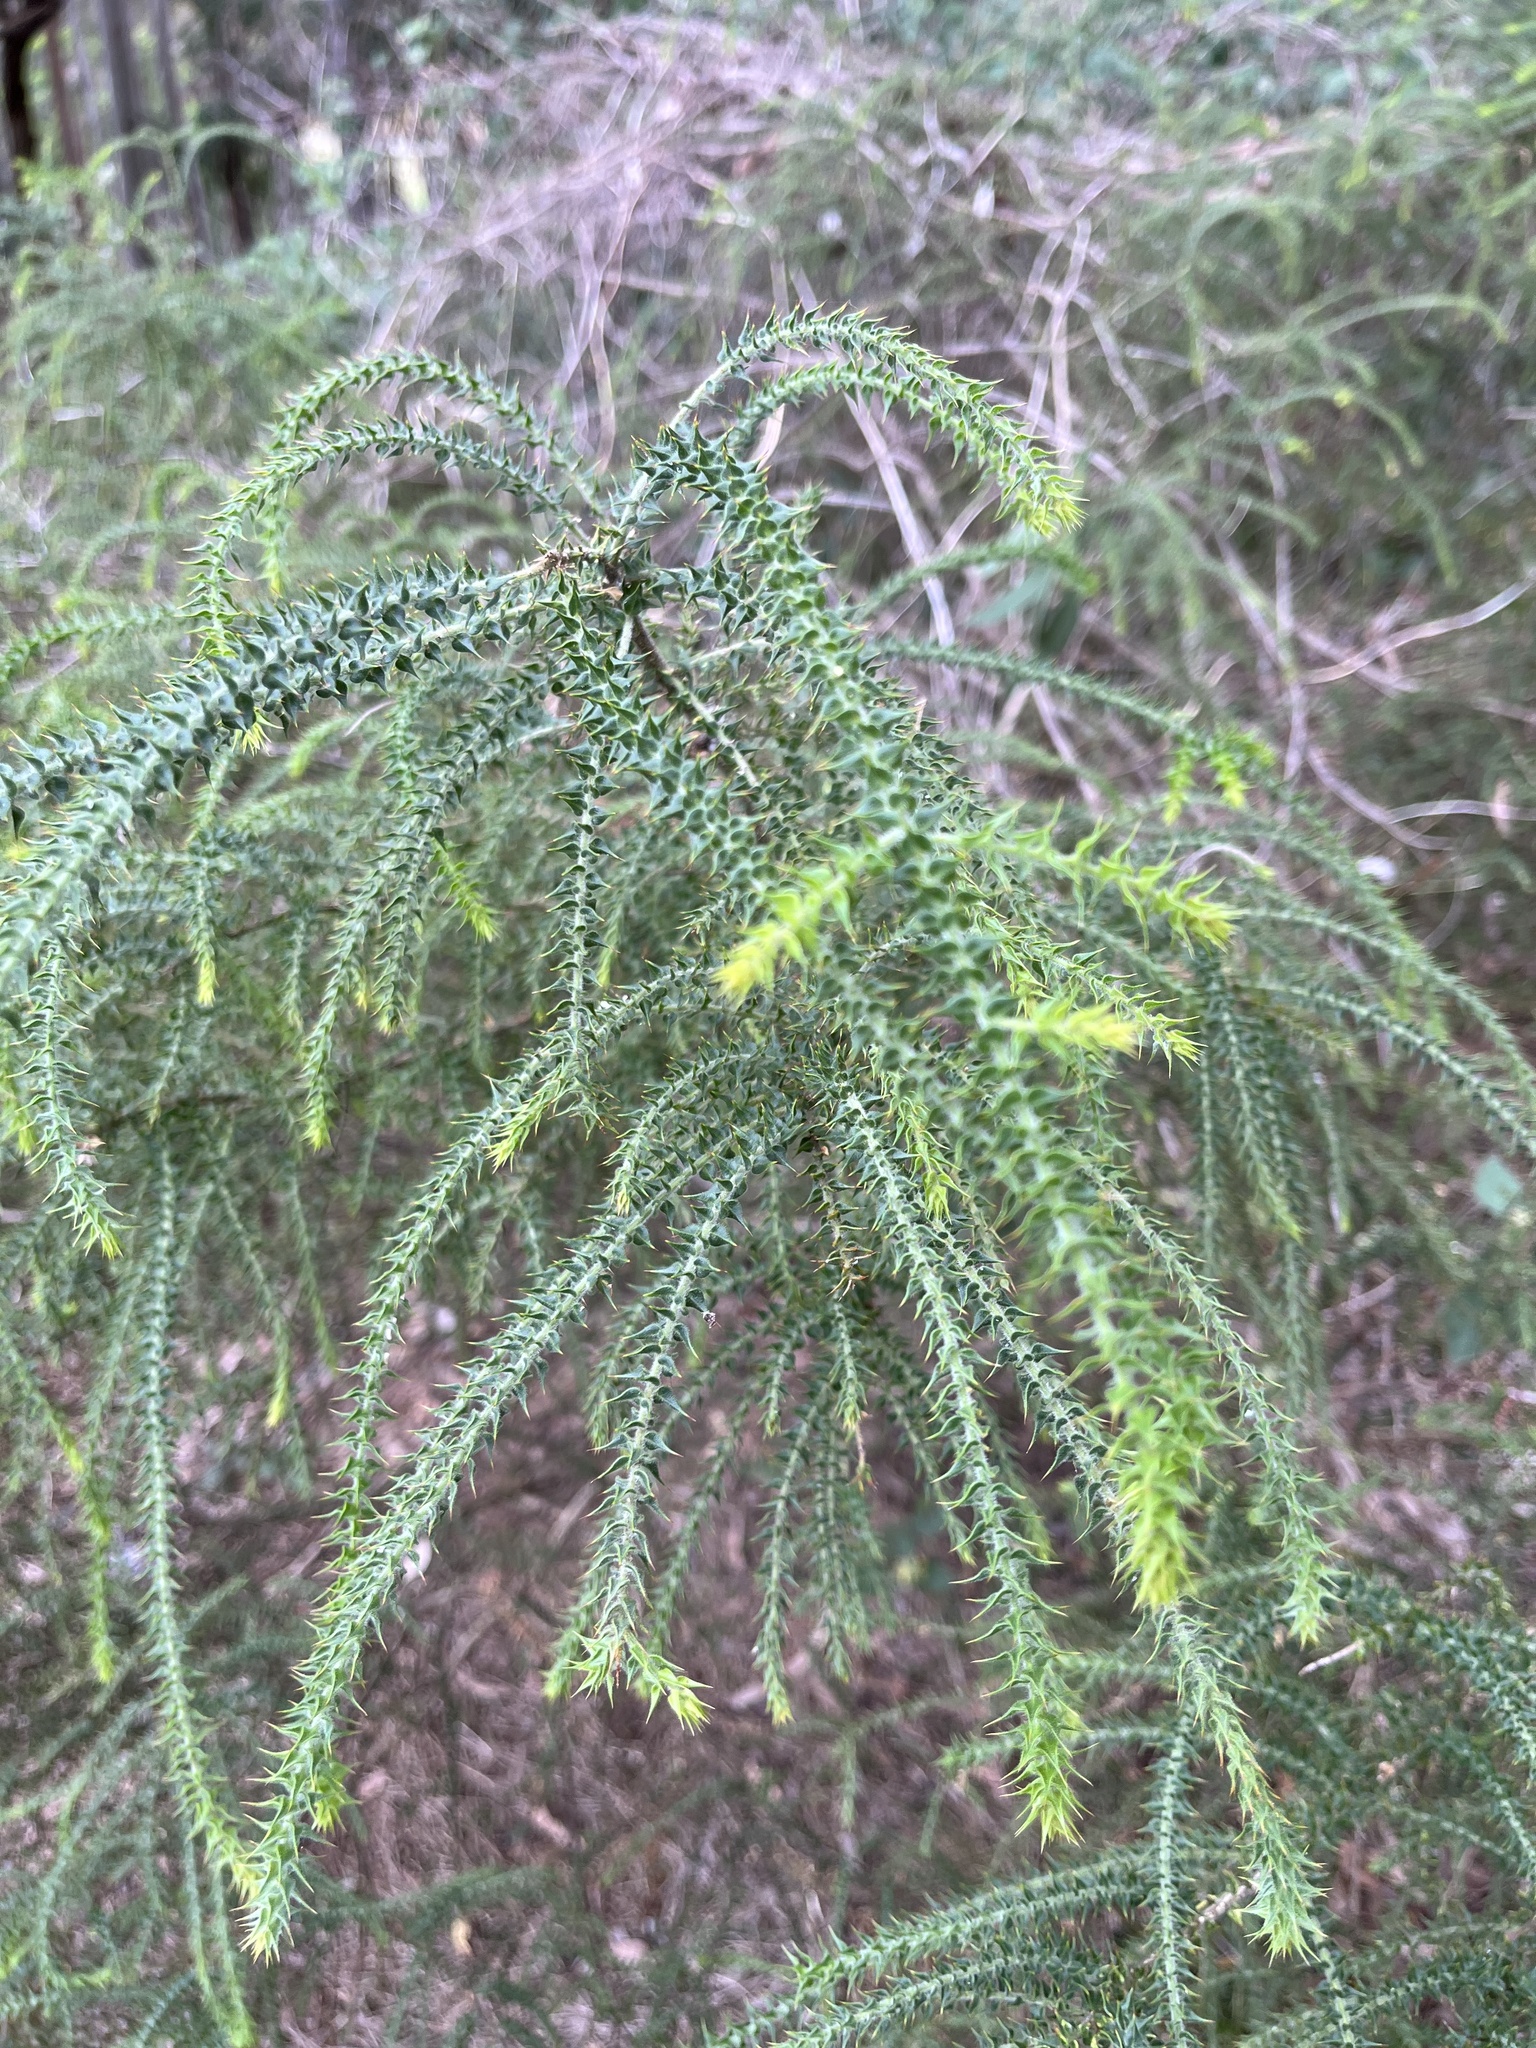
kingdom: Plantae
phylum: Tracheophyta
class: Magnoliopsida
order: Fabales
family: Fabaceae
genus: Daviesia
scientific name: Daviesia villifera
